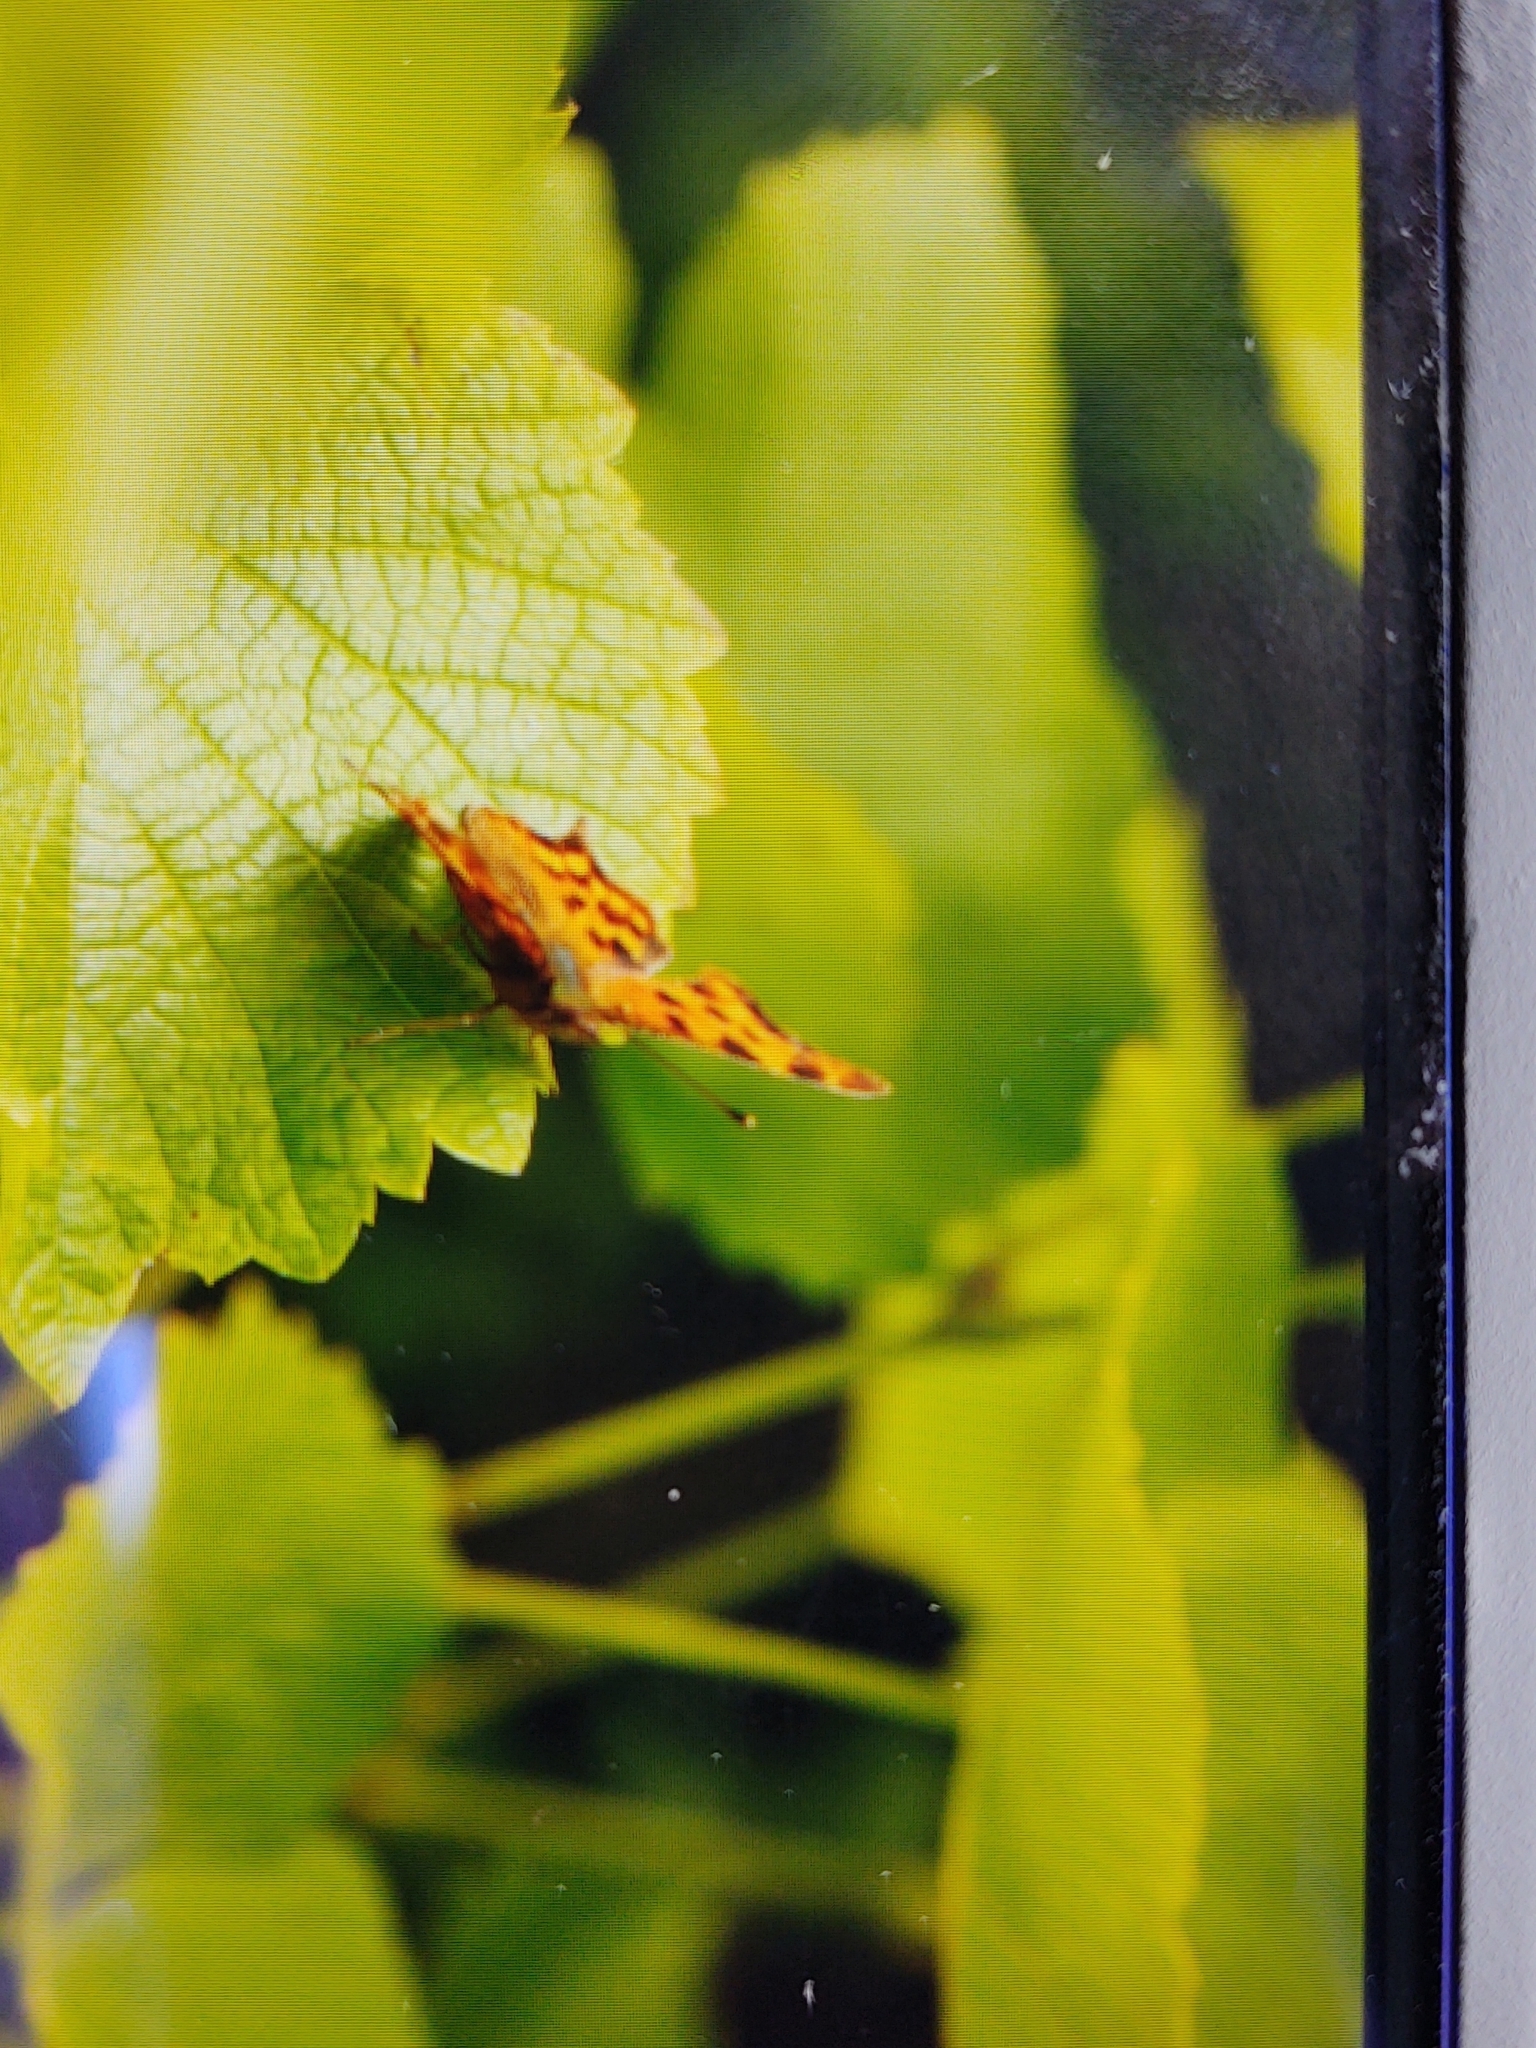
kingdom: Animalia
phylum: Arthropoda
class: Insecta
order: Lepidoptera
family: Nymphalidae
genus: Polygonia
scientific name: Polygonia c-album
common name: Comma
